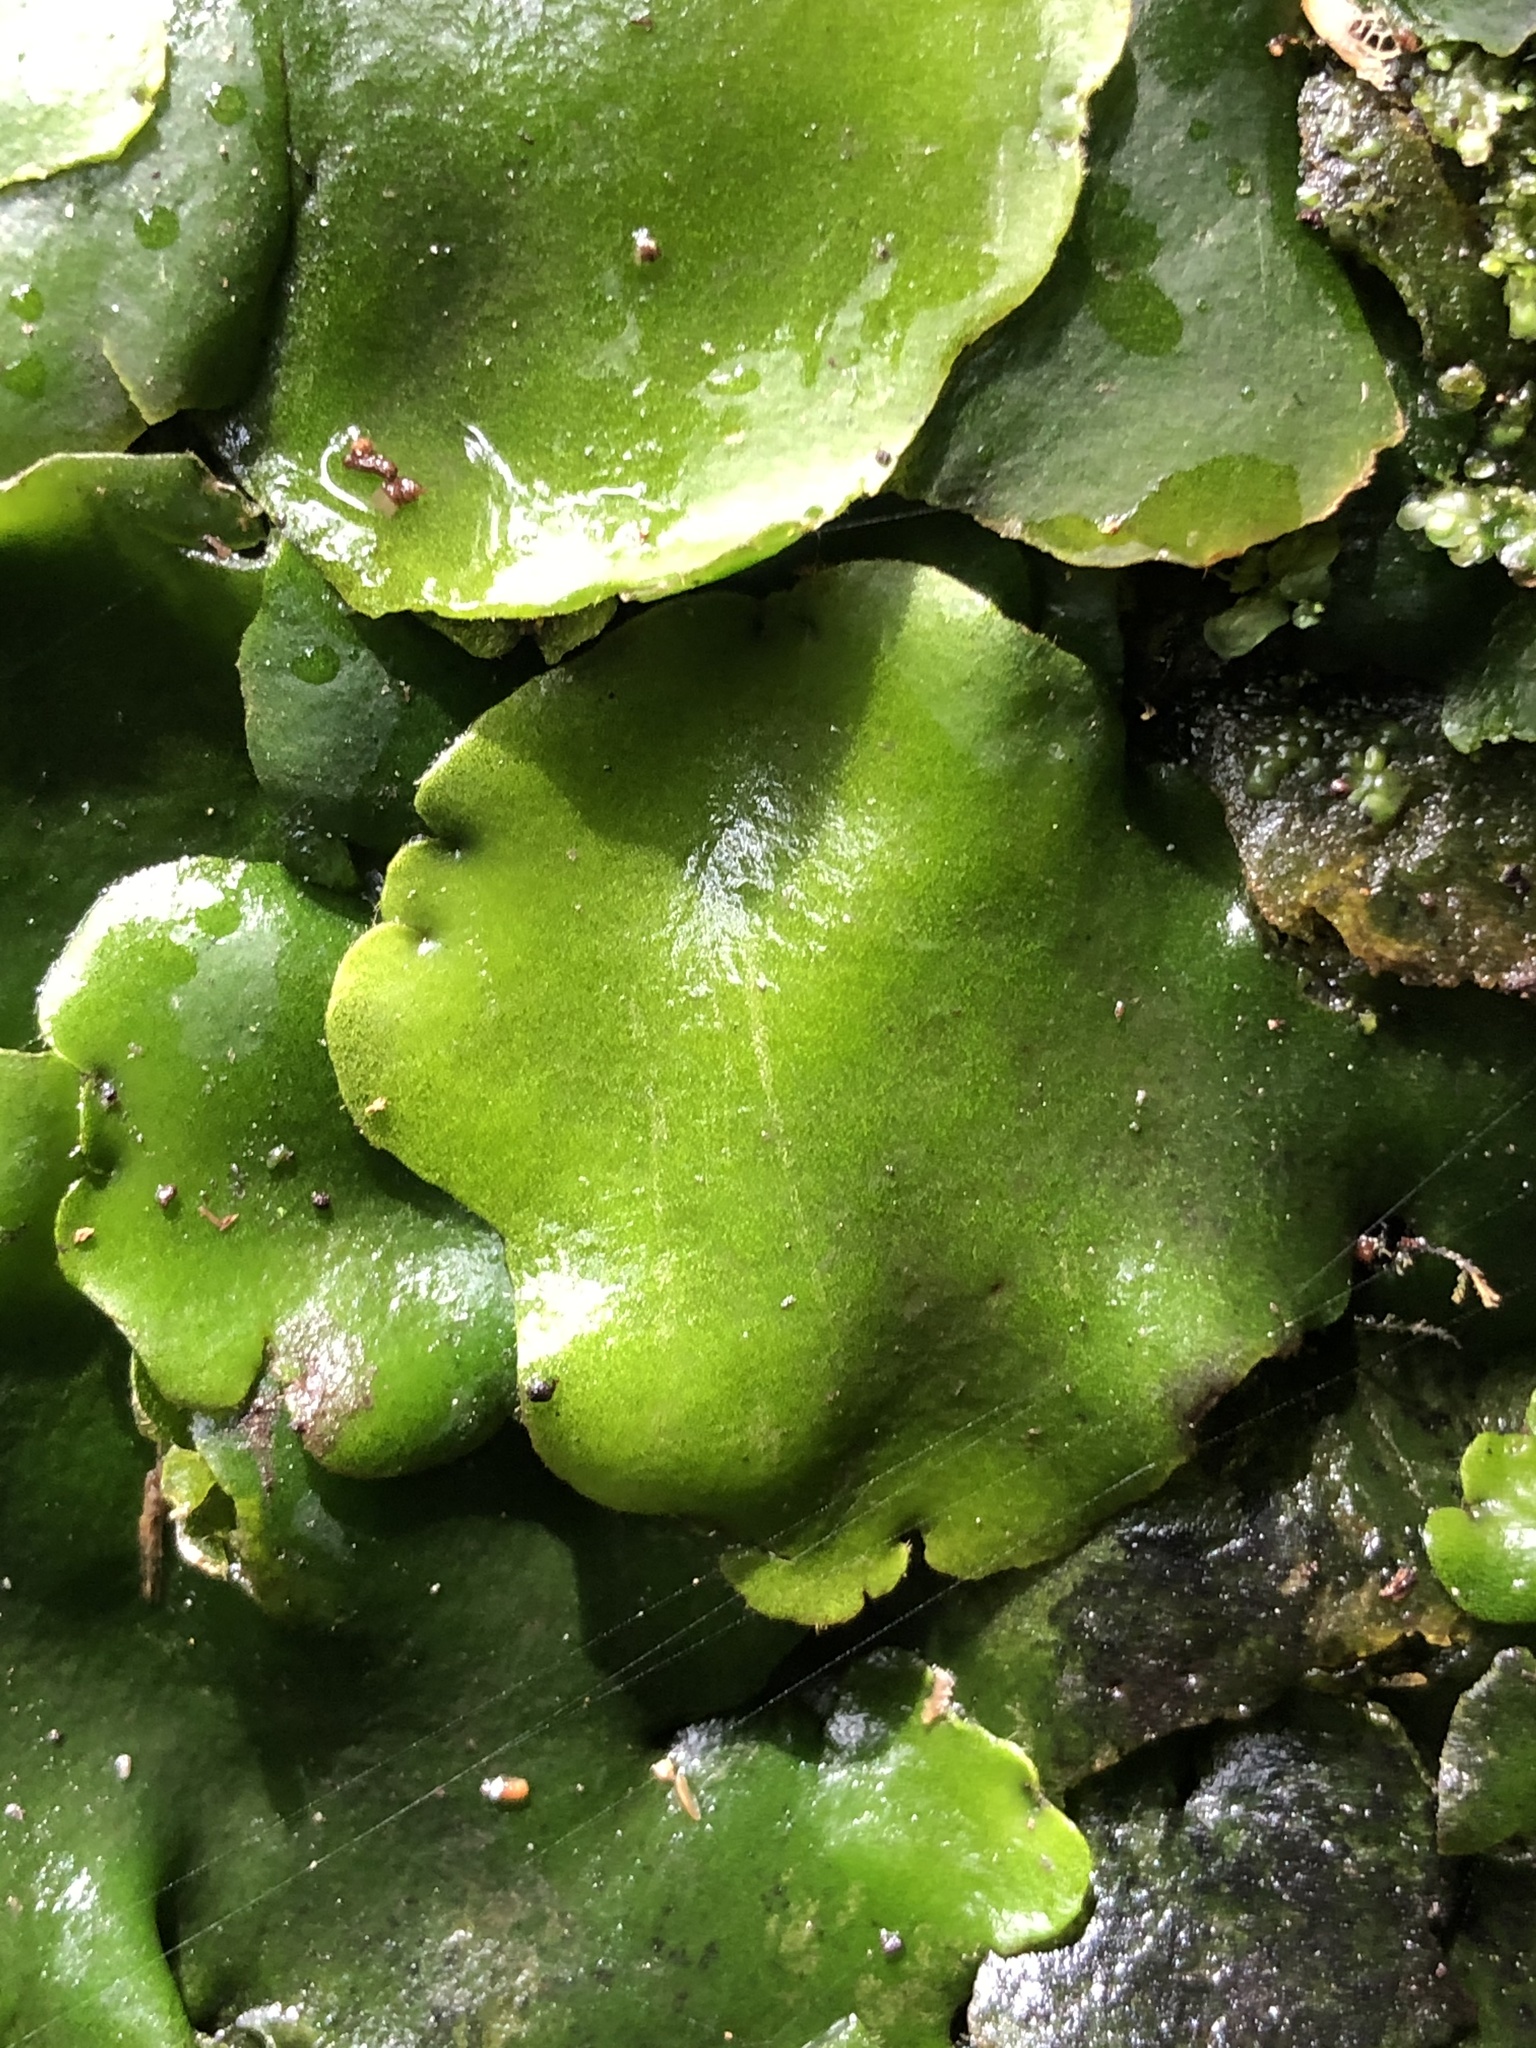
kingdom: Plantae
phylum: Marchantiophyta
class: Marchantiopsida
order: Marchantiales
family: Monocleaceae
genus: Monoclea
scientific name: Monoclea forsteri
